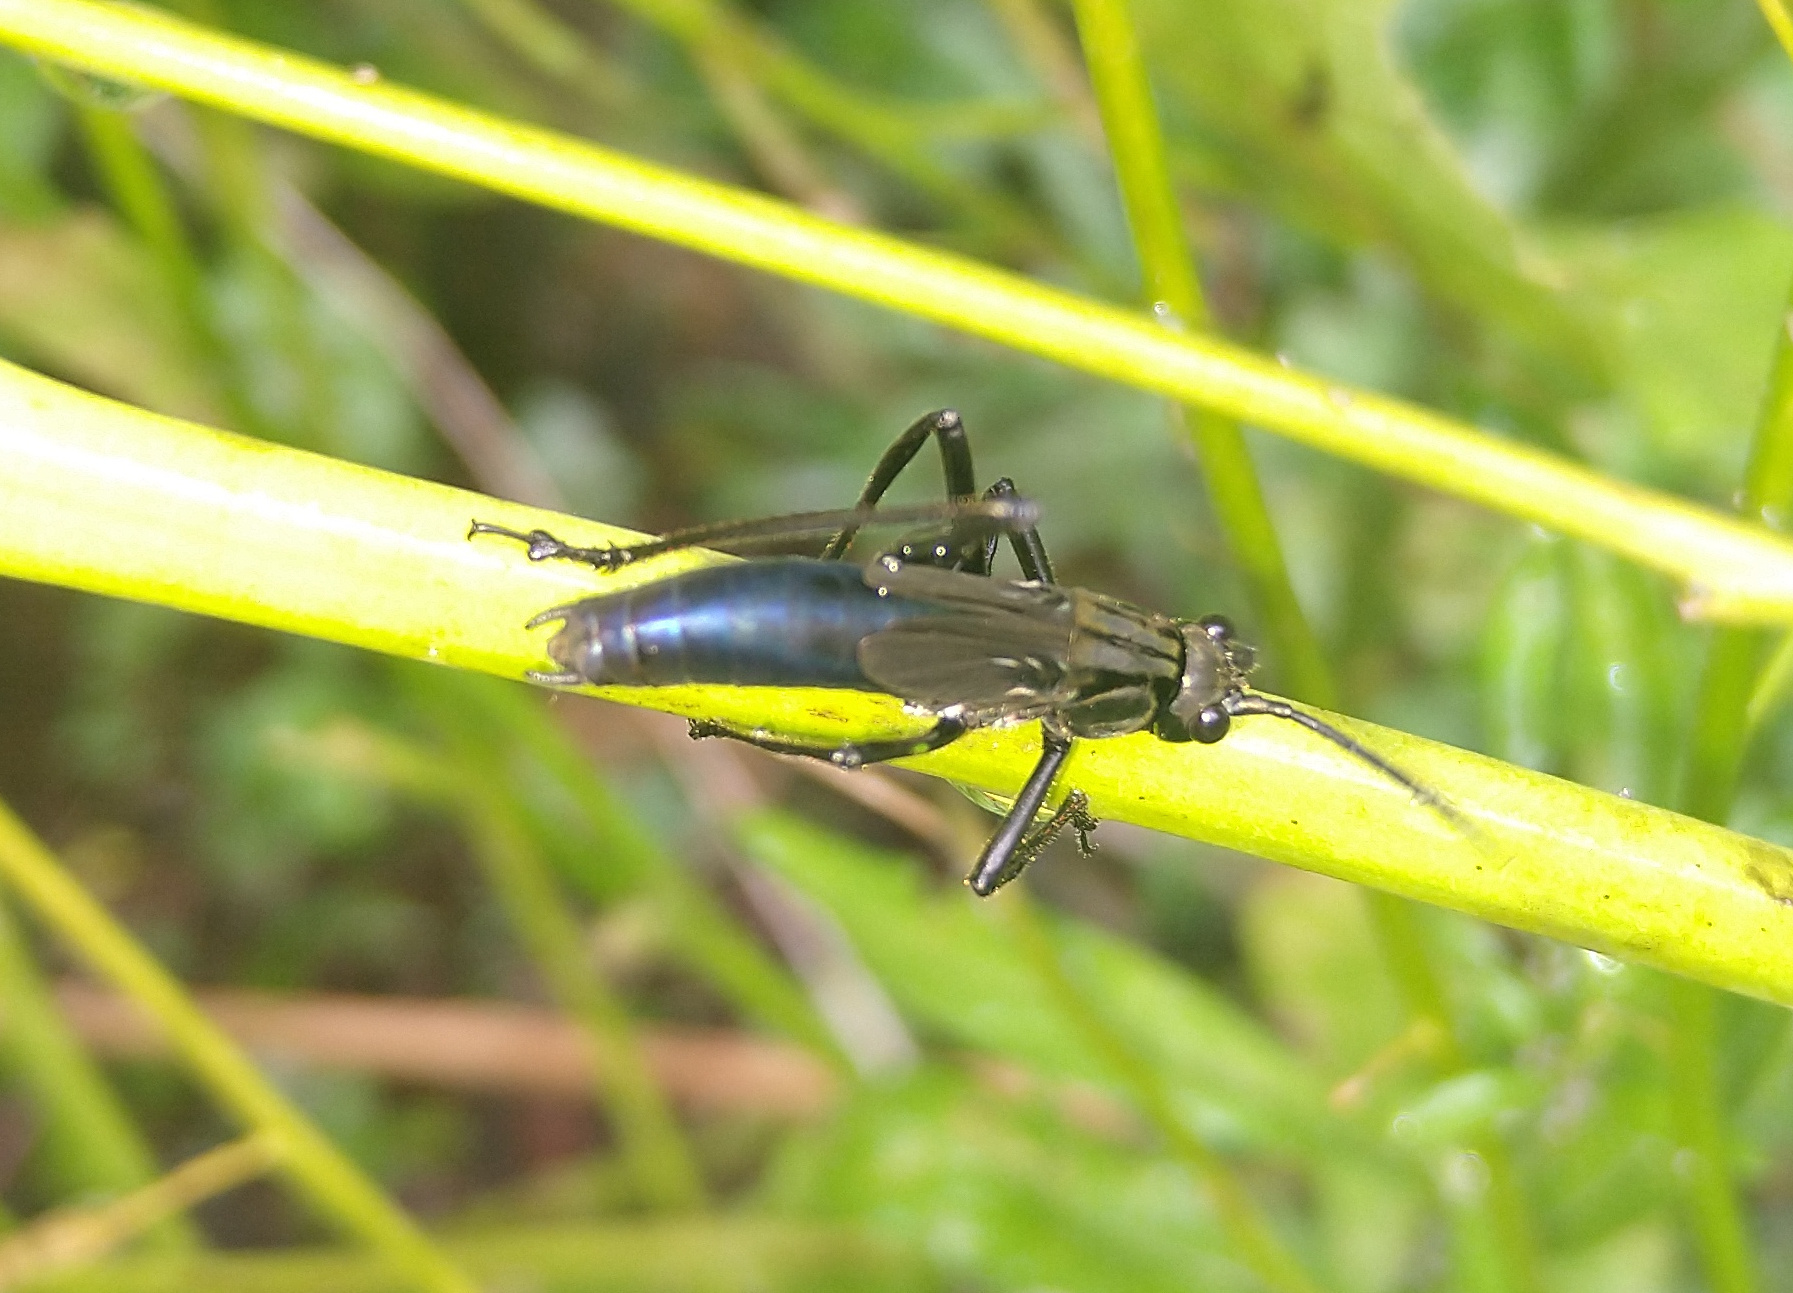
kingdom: Animalia
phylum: Arthropoda
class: Insecta
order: Orthoptera
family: Tettigoniidae
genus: Scaphura
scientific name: Scaphura nigra
